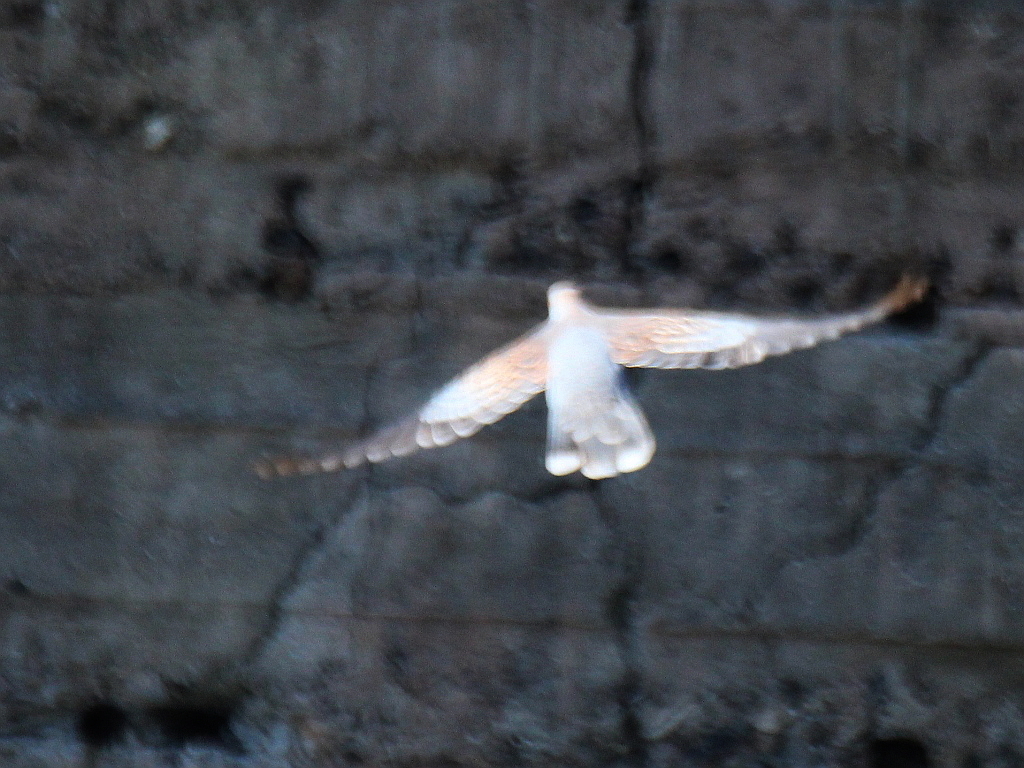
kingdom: Animalia
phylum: Chordata
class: Aves
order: Columbiformes
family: Columbidae
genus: Streptopelia
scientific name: Streptopelia orientalis
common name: Oriental turtle dove
